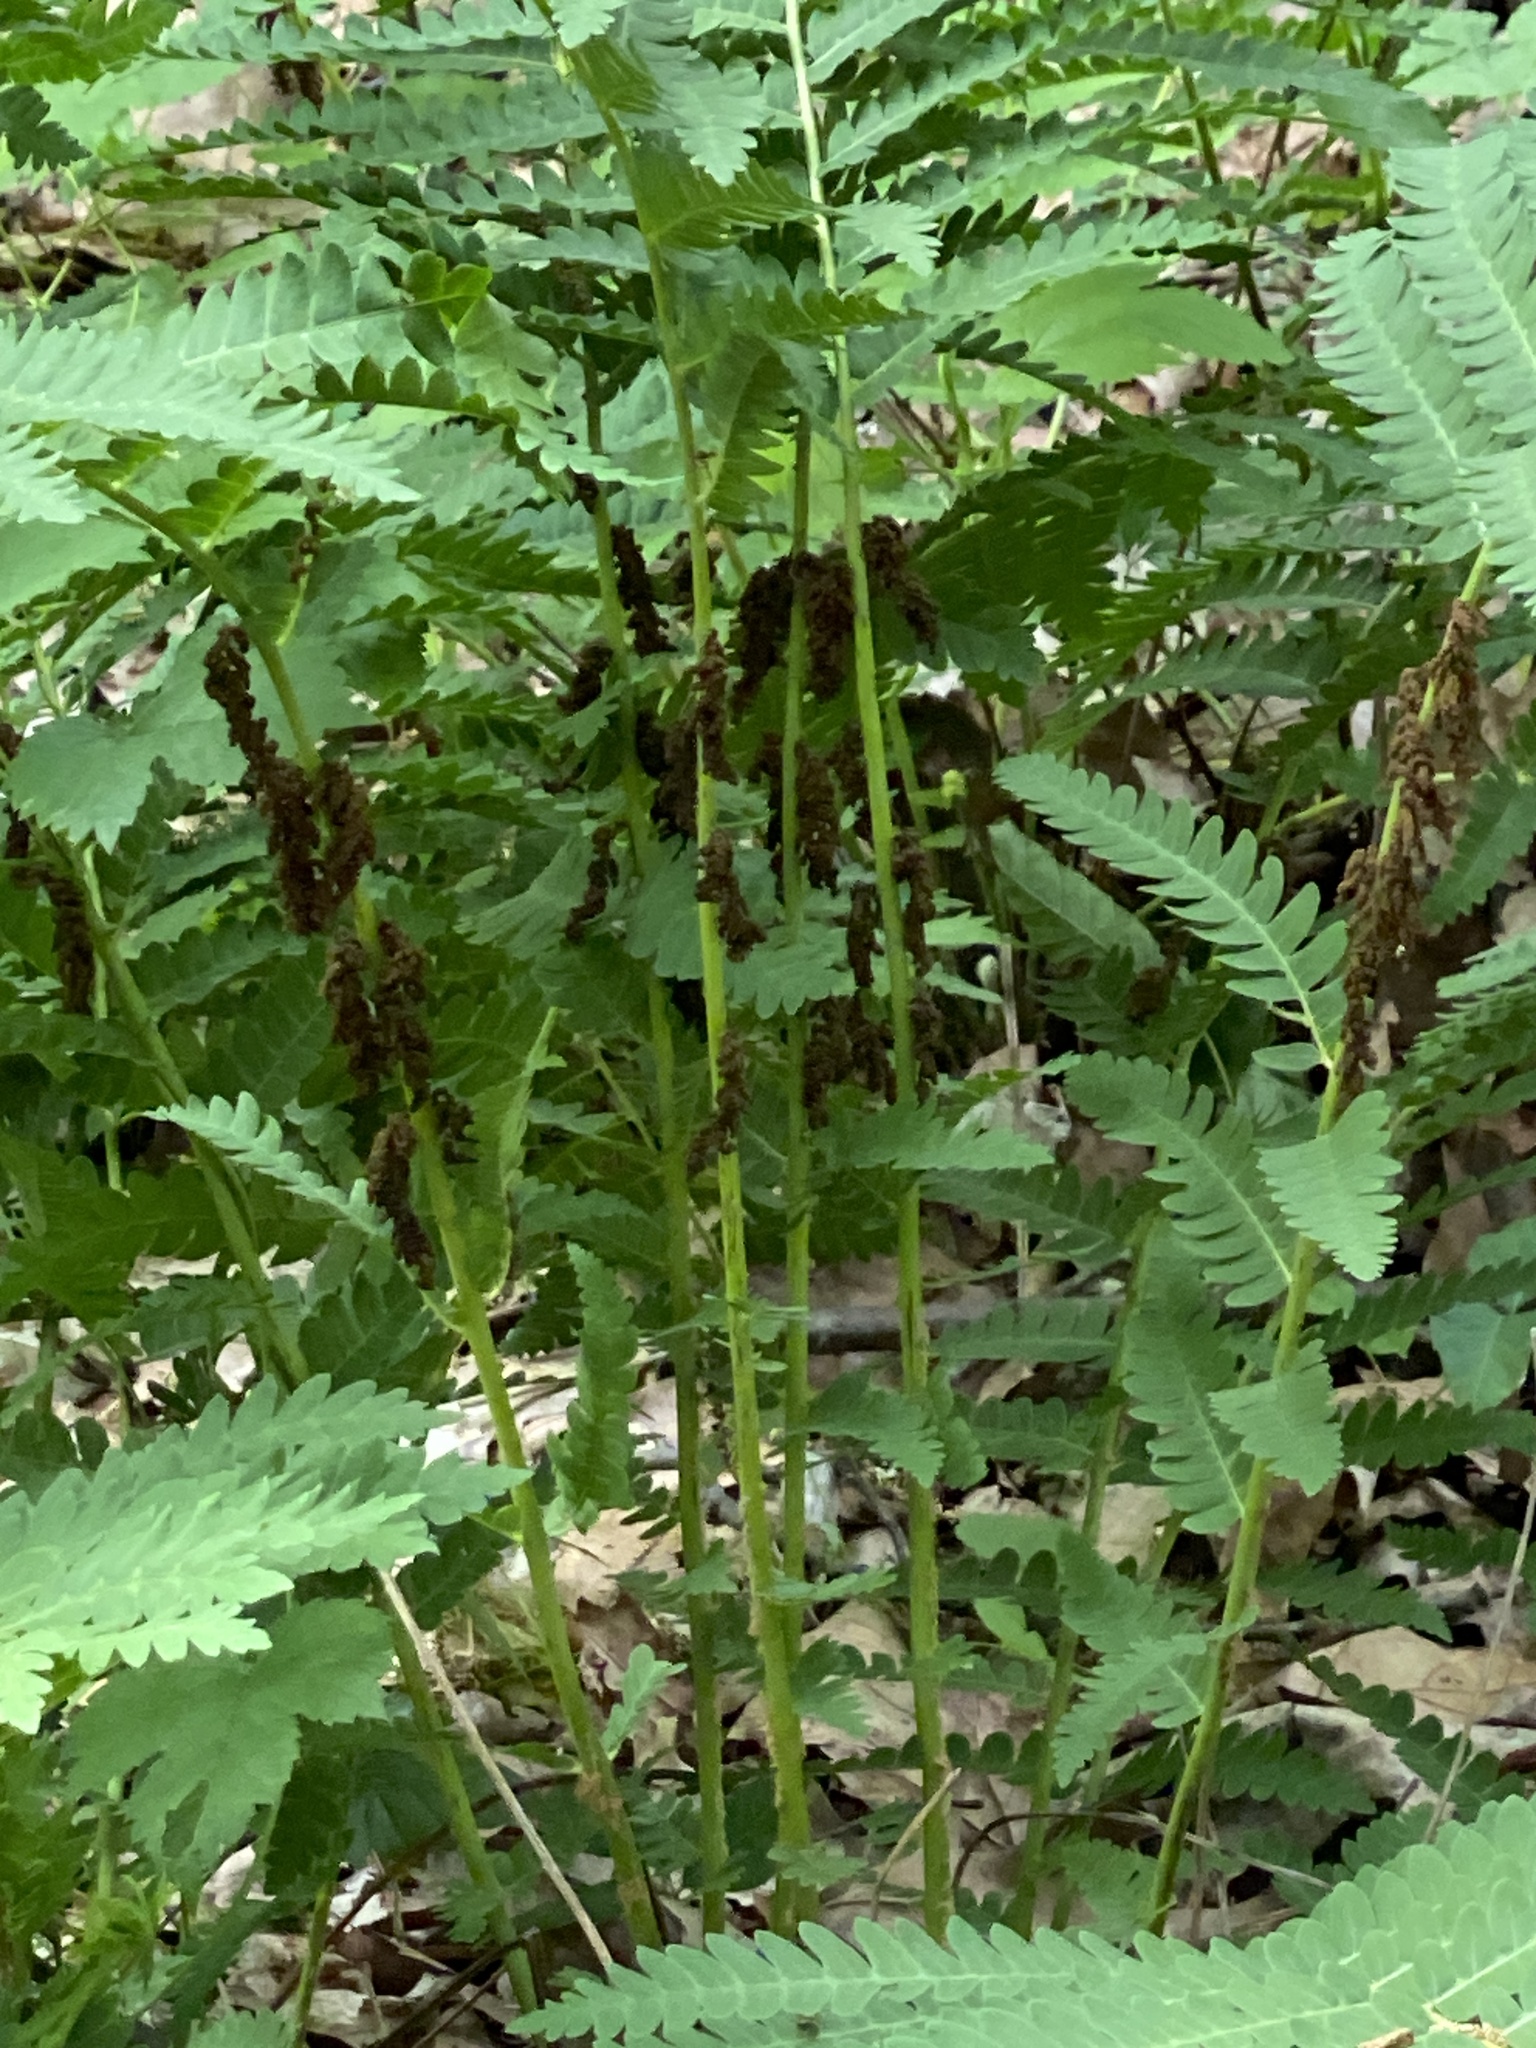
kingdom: Plantae
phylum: Tracheophyta
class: Polypodiopsida
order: Osmundales
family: Osmundaceae
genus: Claytosmunda
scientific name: Claytosmunda claytoniana
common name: Clayton's fern
